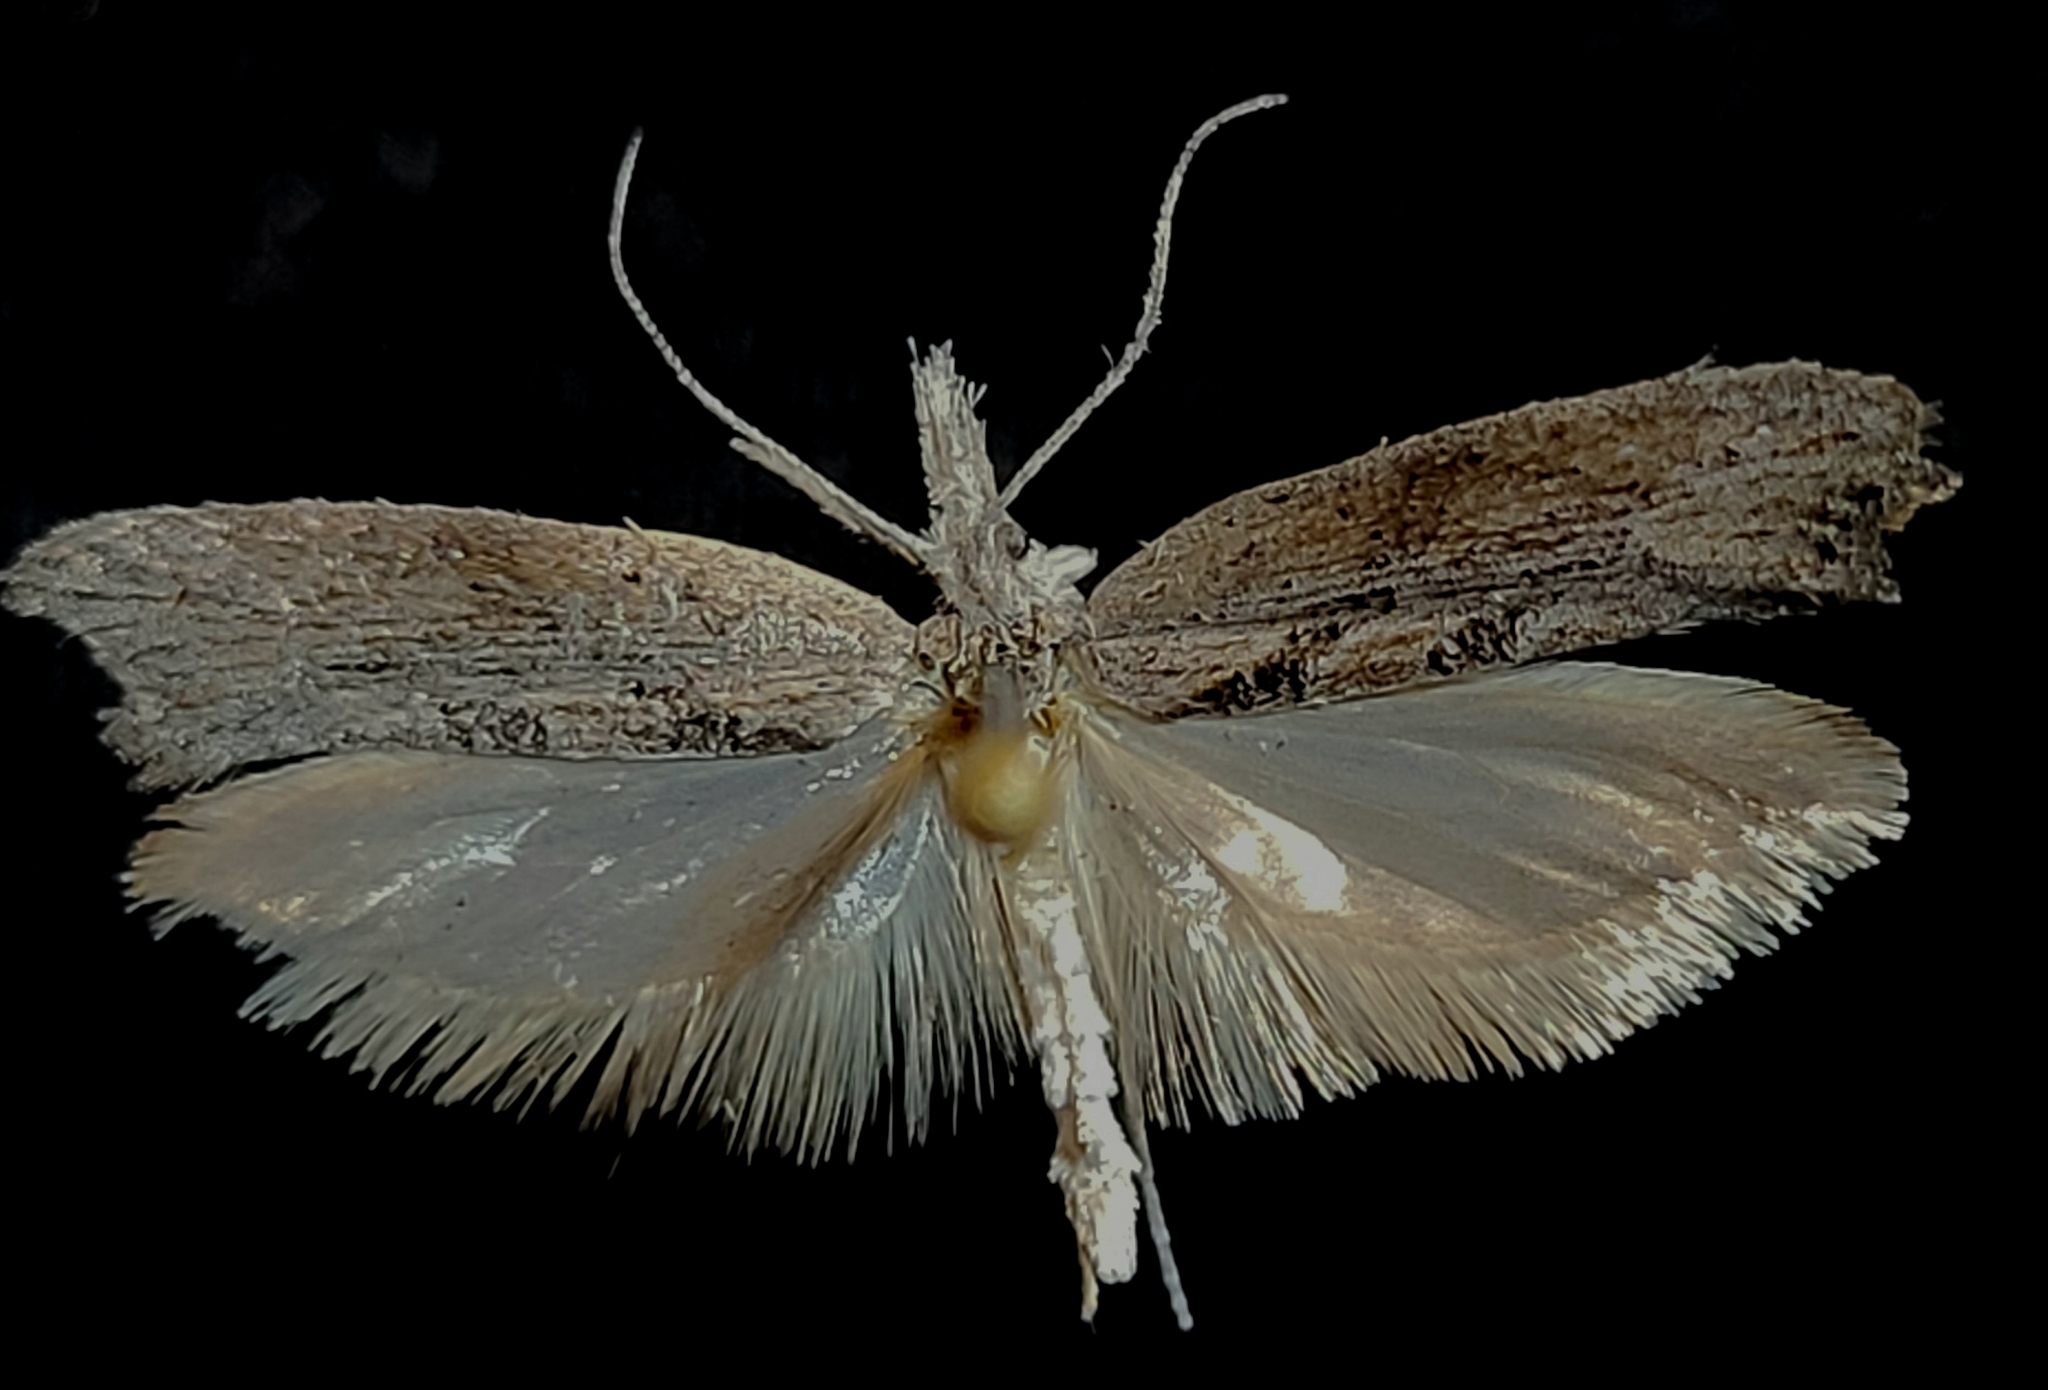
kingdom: Animalia
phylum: Arthropoda
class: Insecta
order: Lepidoptera
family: Ypsolophidae
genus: Ypsolopha
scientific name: Ypsolopha falciferella
